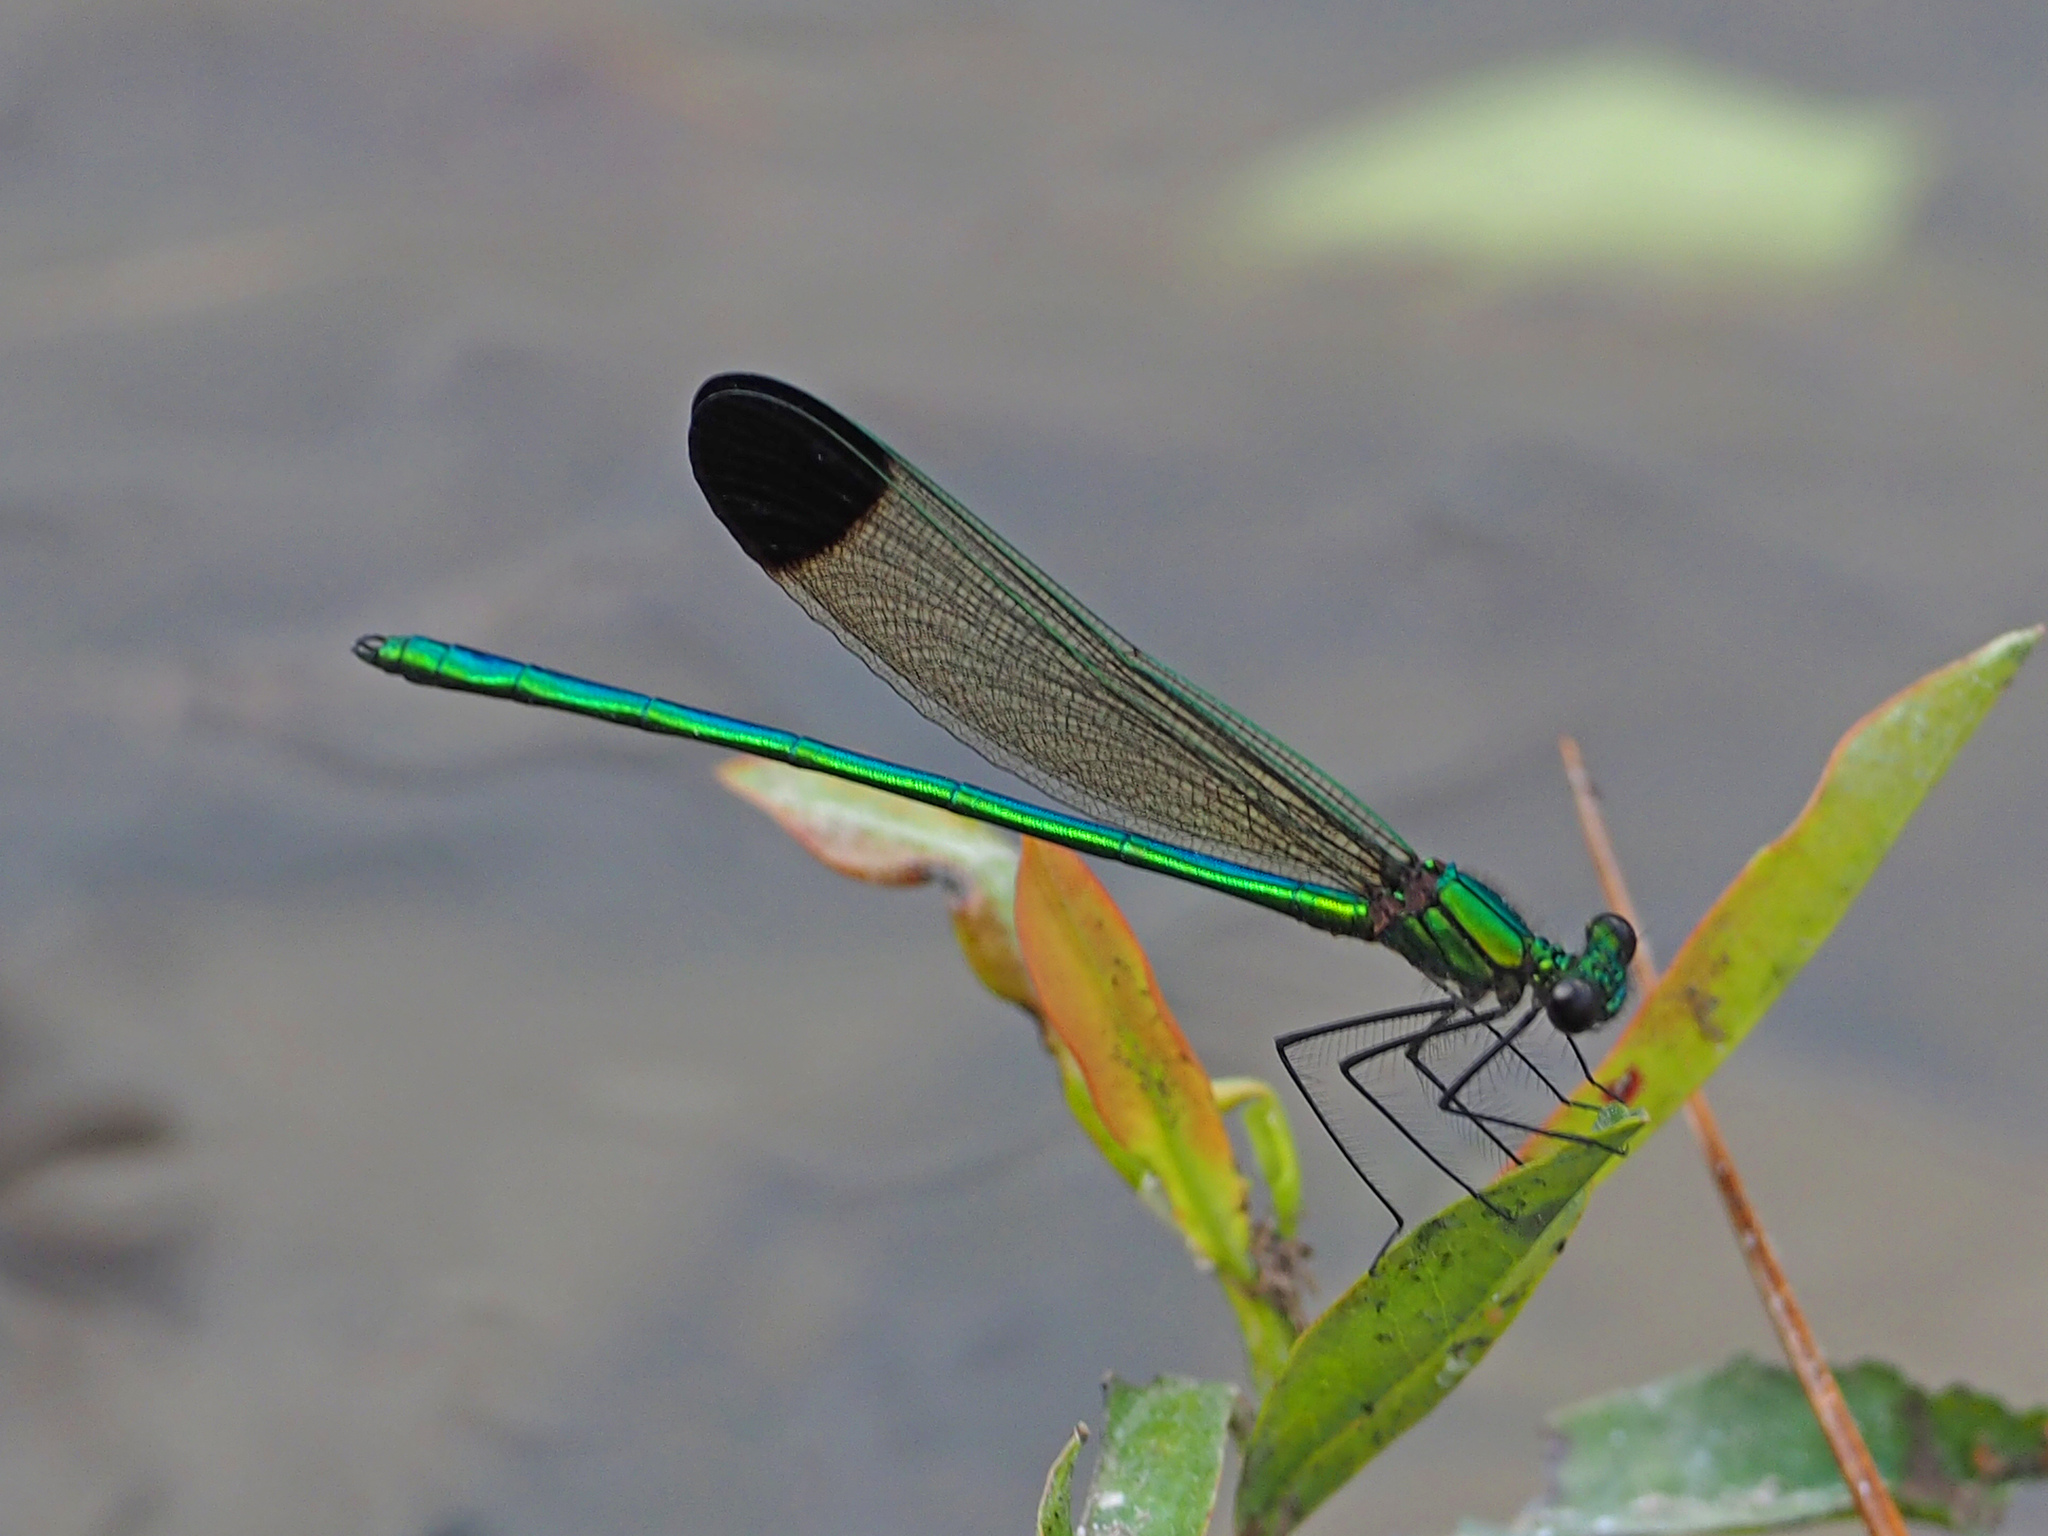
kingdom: Animalia
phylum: Arthropoda
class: Insecta
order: Odonata
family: Calopterygidae
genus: Calopteryx
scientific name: Calopteryx dimidiata
